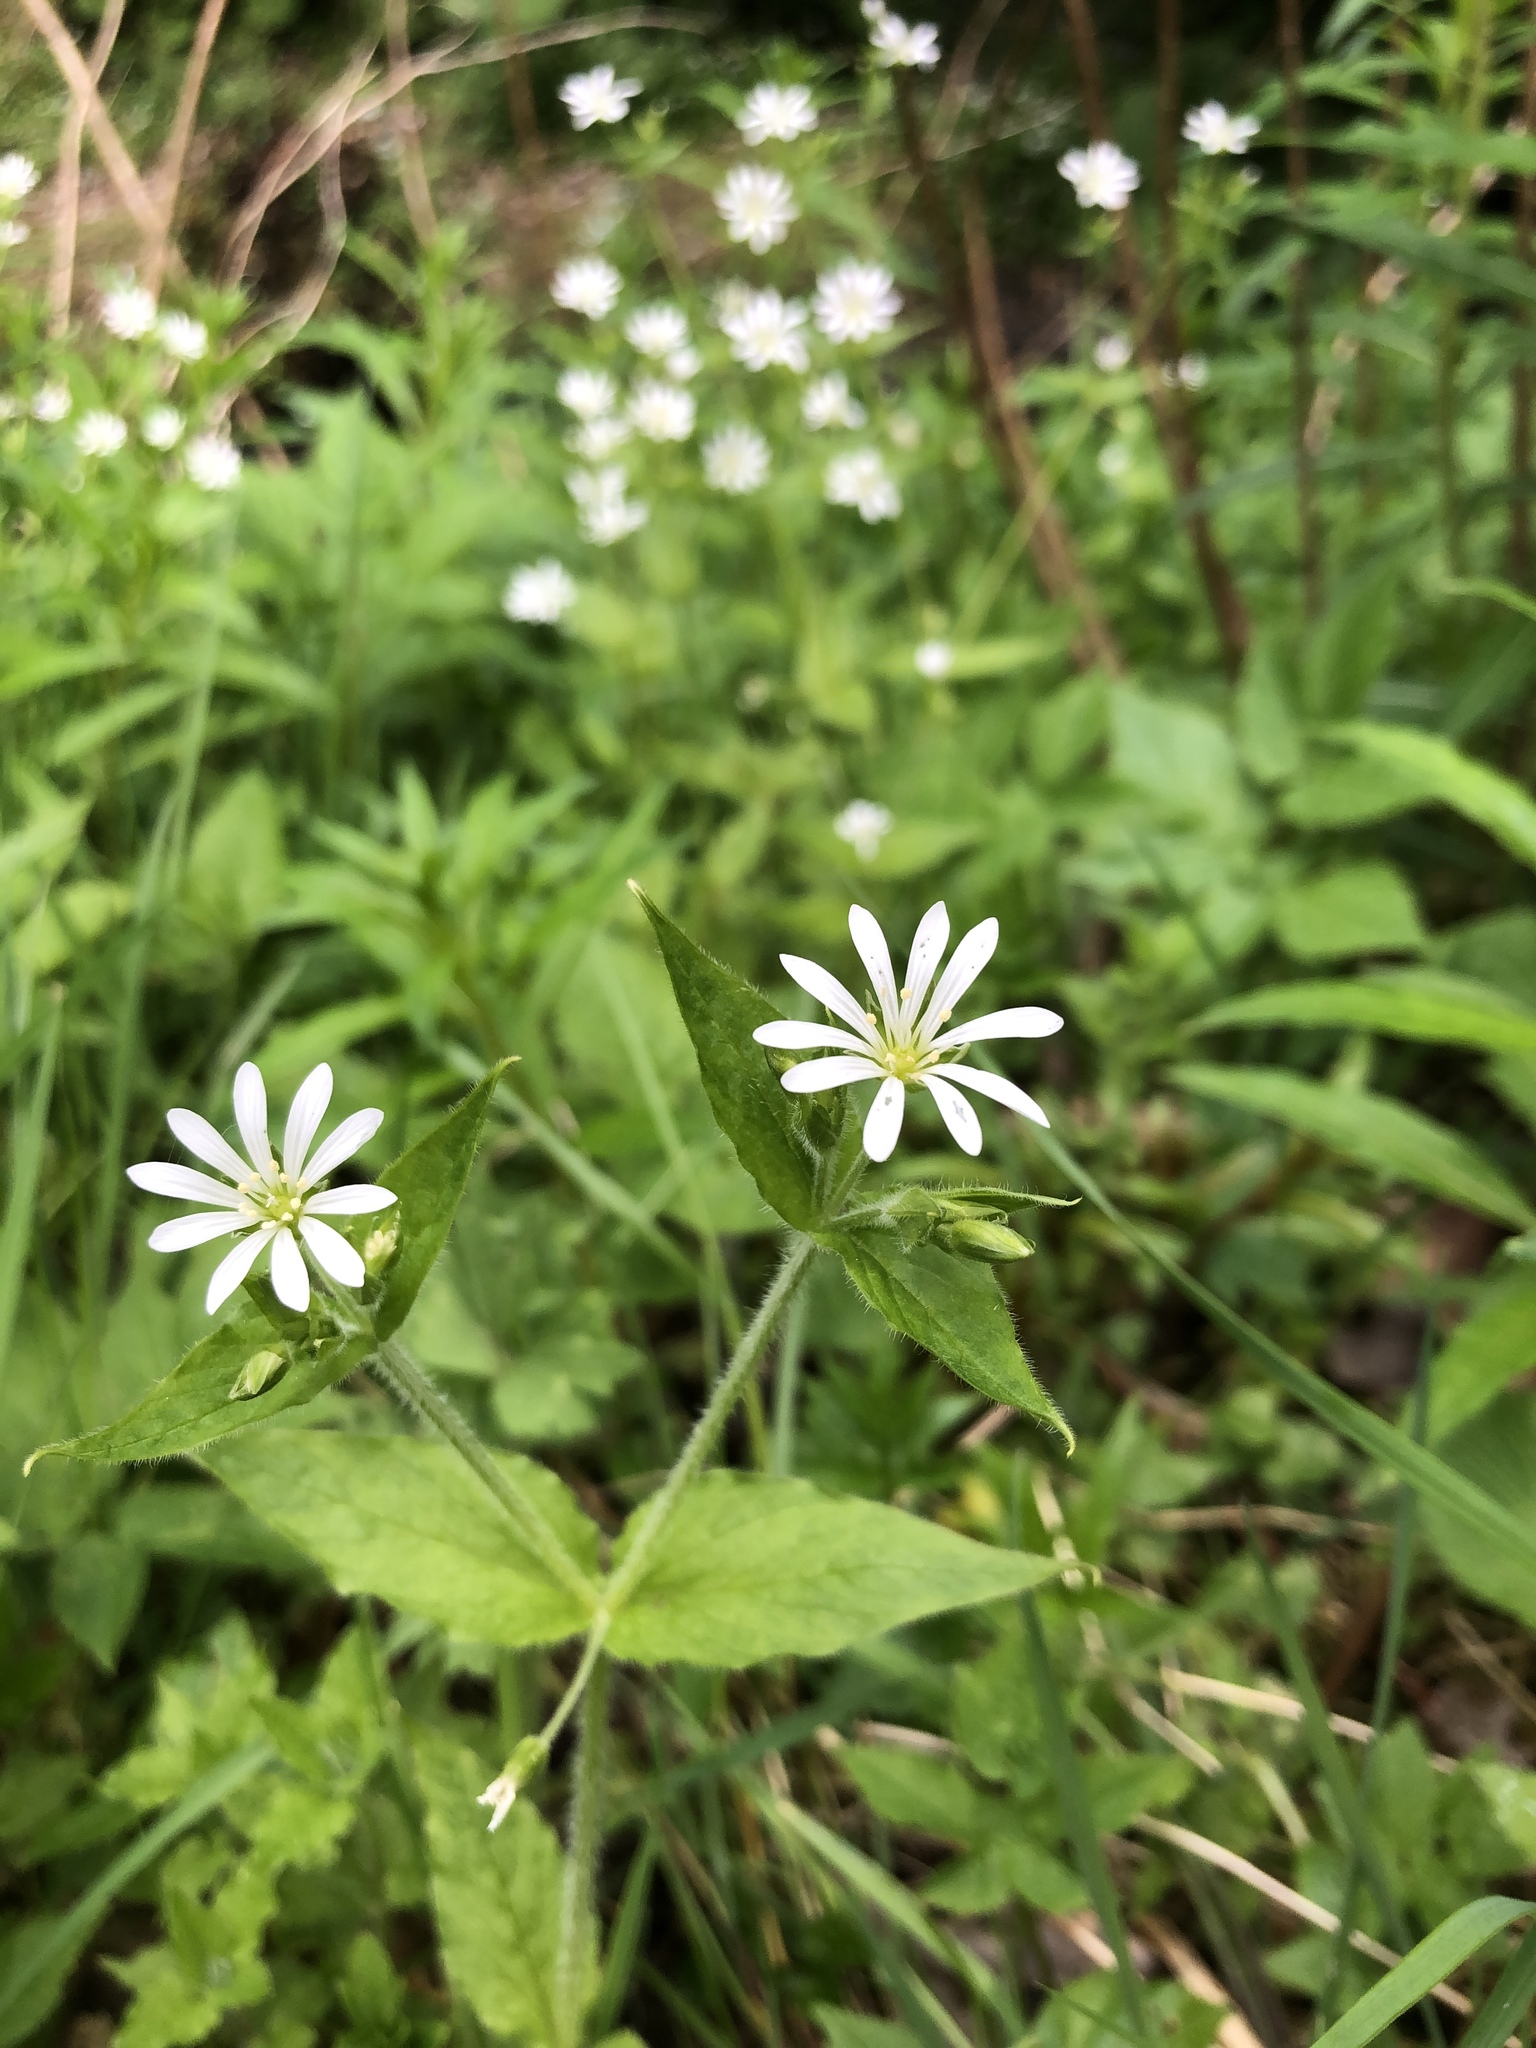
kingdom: Plantae
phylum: Tracheophyta
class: Magnoliopsida
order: Caryophyllales
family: Caryophyllaceae
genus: Stellaria
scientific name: Stellaria nemorum
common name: Wood stitchwort
